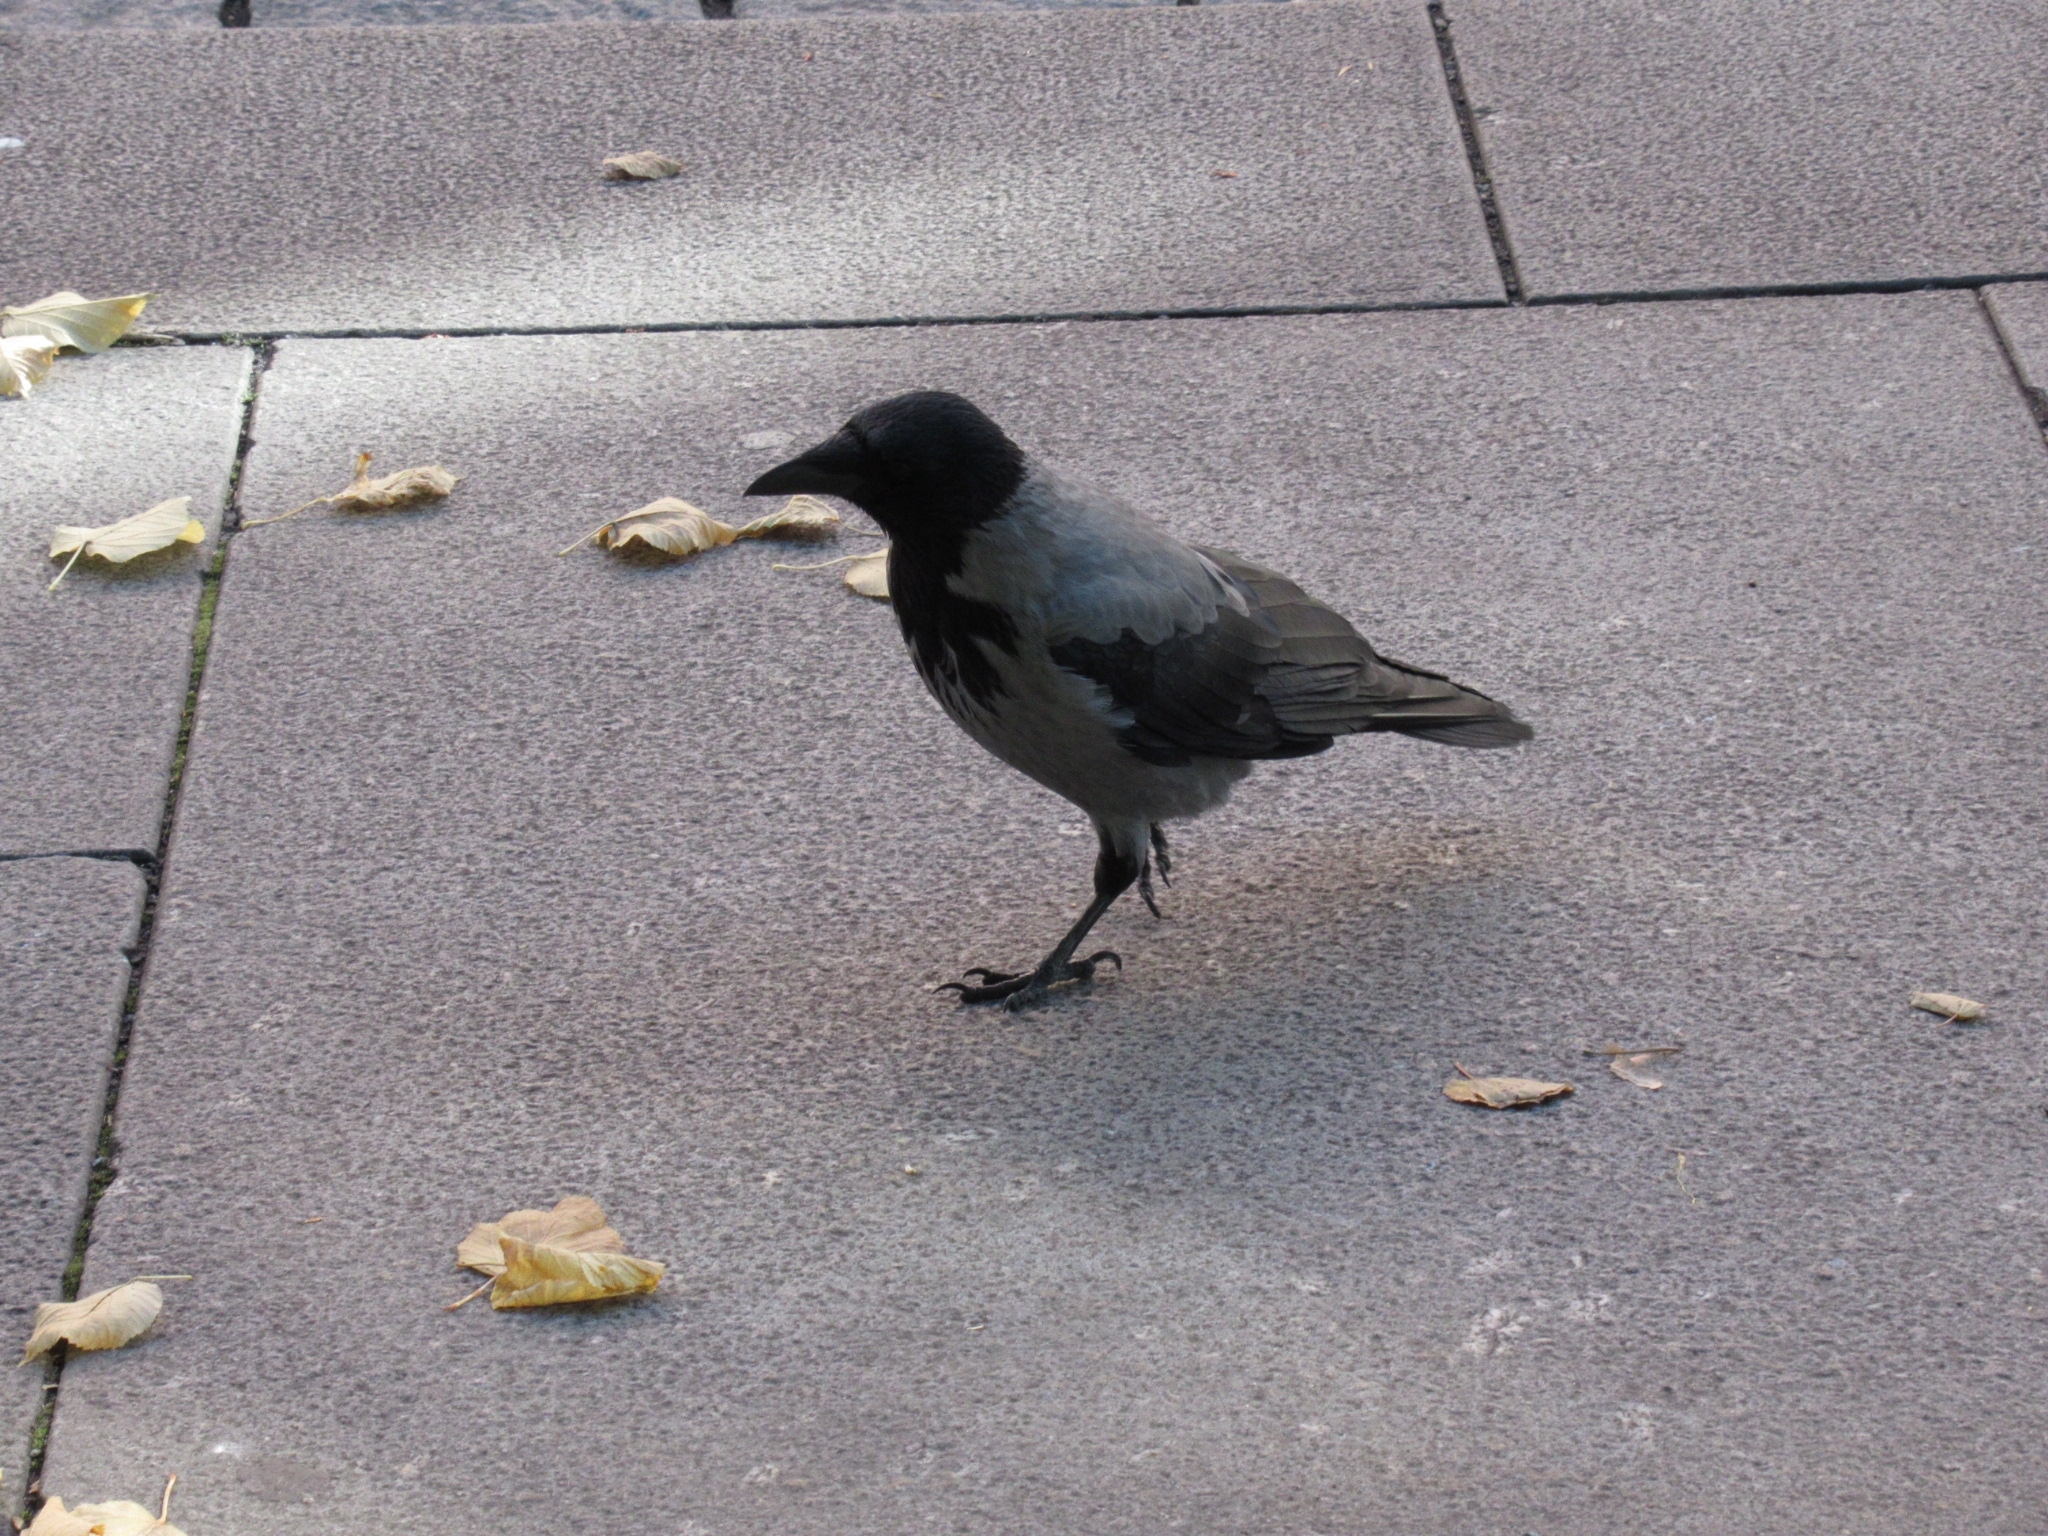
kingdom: Animalia
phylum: Chordata
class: Aves
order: Passeriformes
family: Corvidae
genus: Corvus
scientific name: Corvus cornix
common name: Hooded crow
